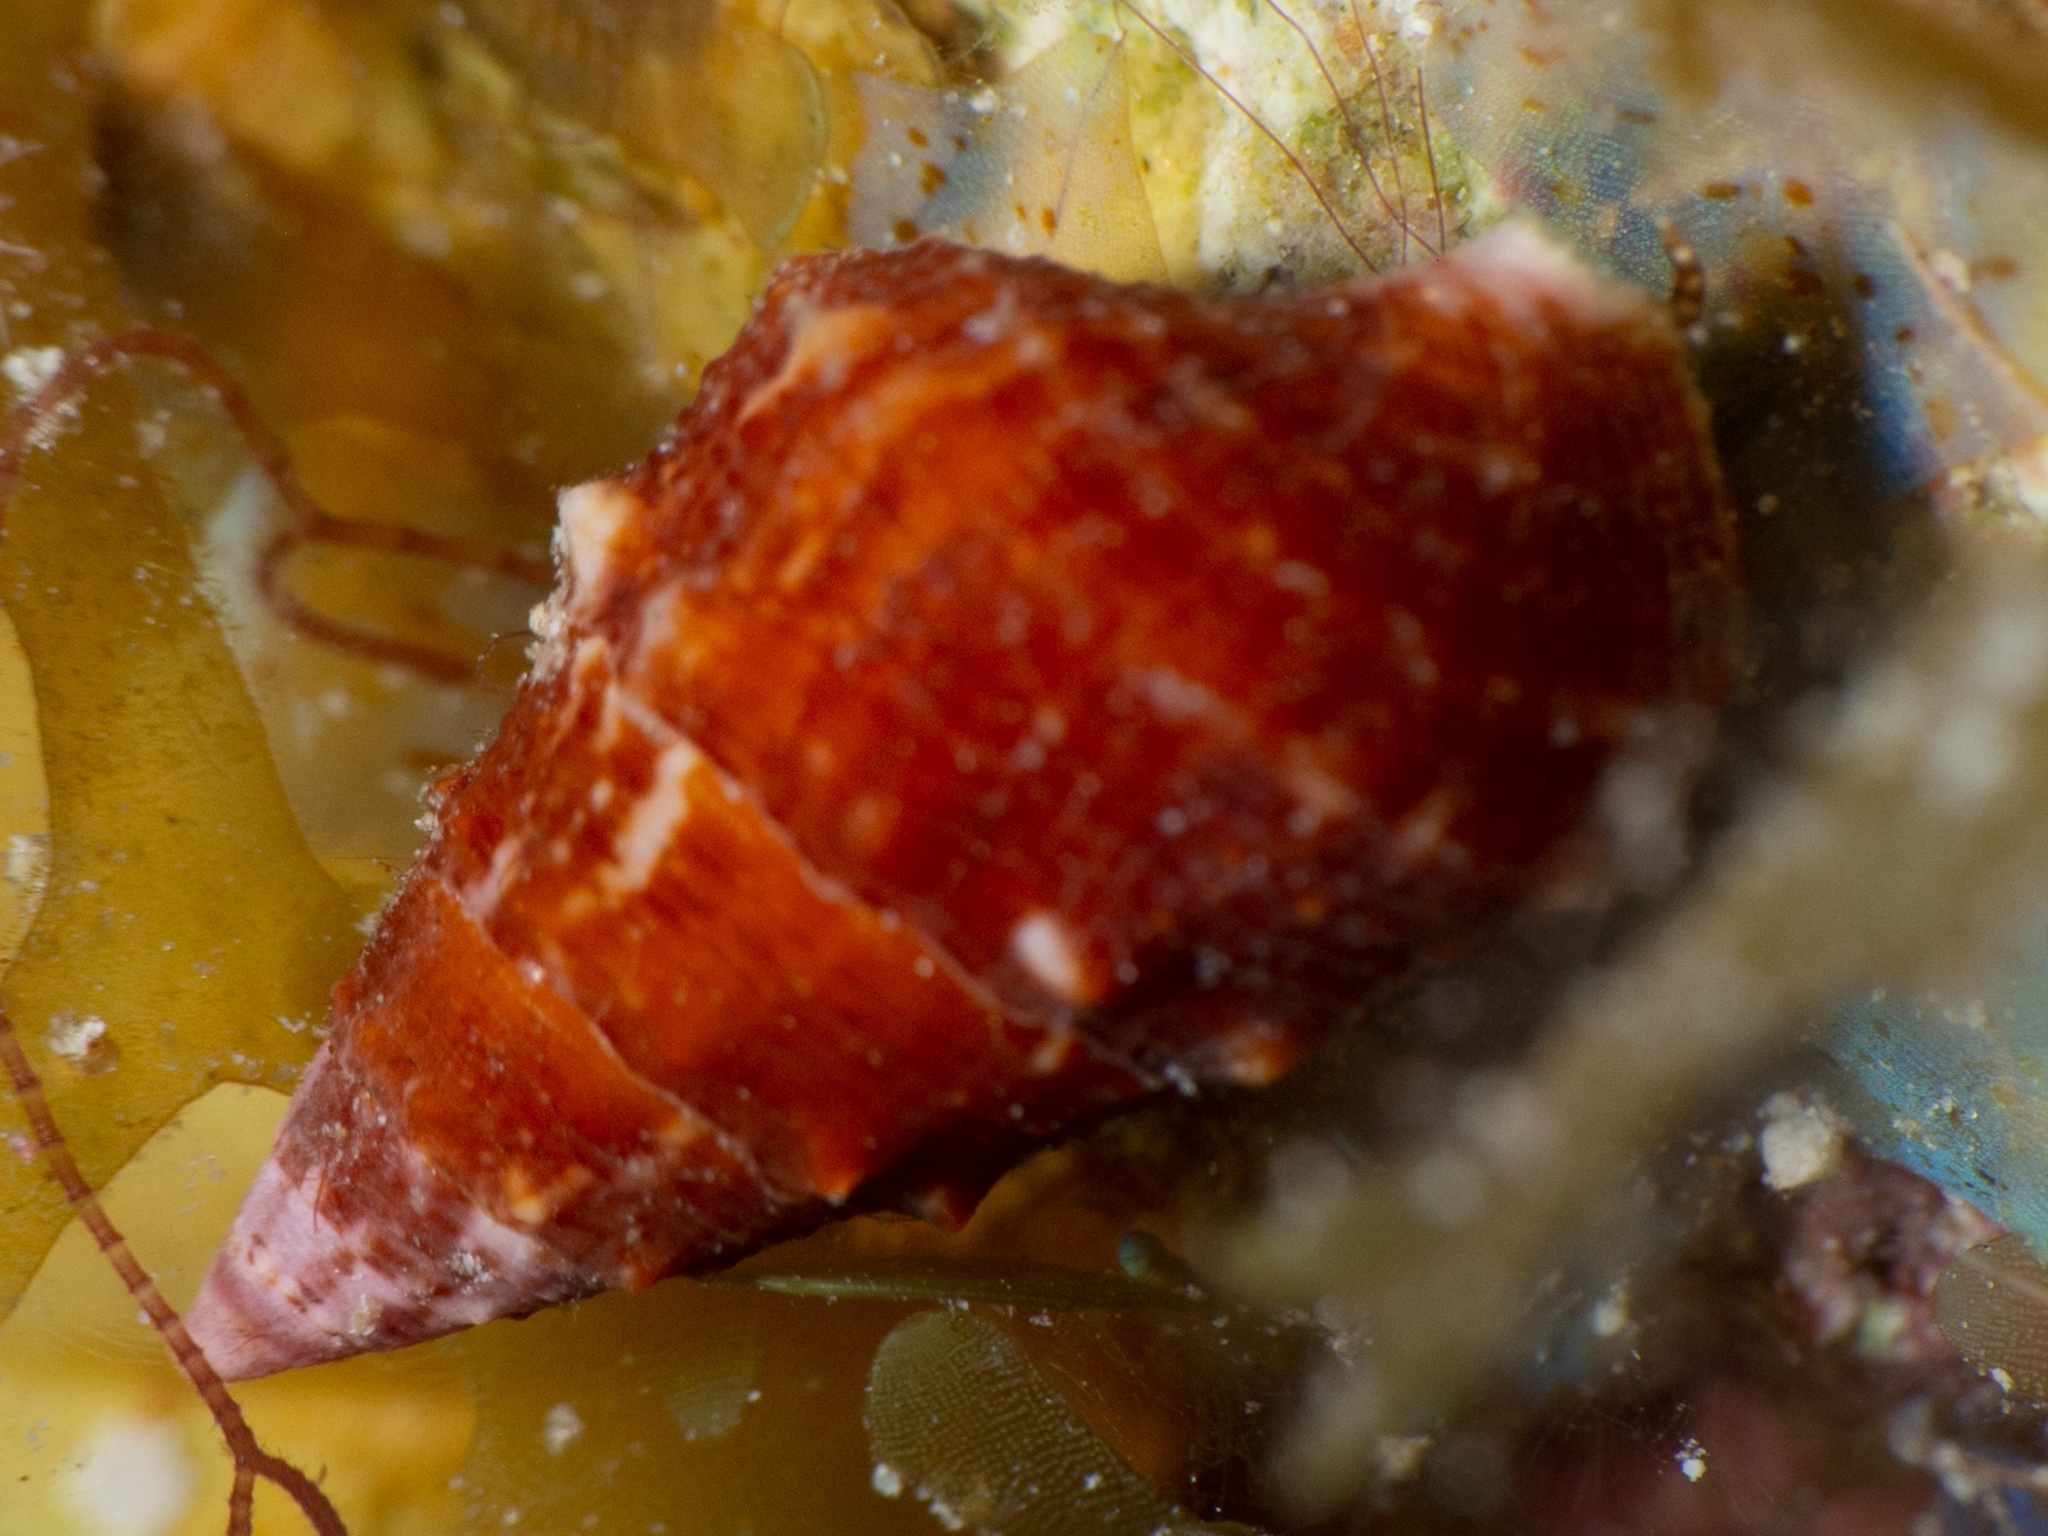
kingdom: Animalia
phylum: Mollusca
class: Gastropoda
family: Cerithiidae
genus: Cerithium
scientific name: Cerithium litteratum
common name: Stocky cerith
